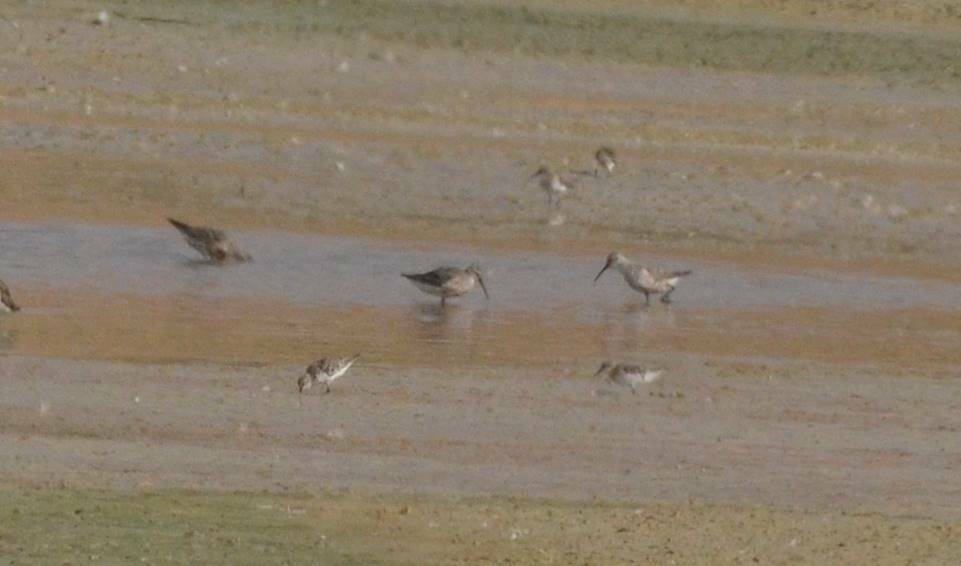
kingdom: Animalia
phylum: Chordata
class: Aves
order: Charadriiformes
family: Scolopacidae
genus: Calidris
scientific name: Calidris ferruginea
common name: Curlew sandpiper
